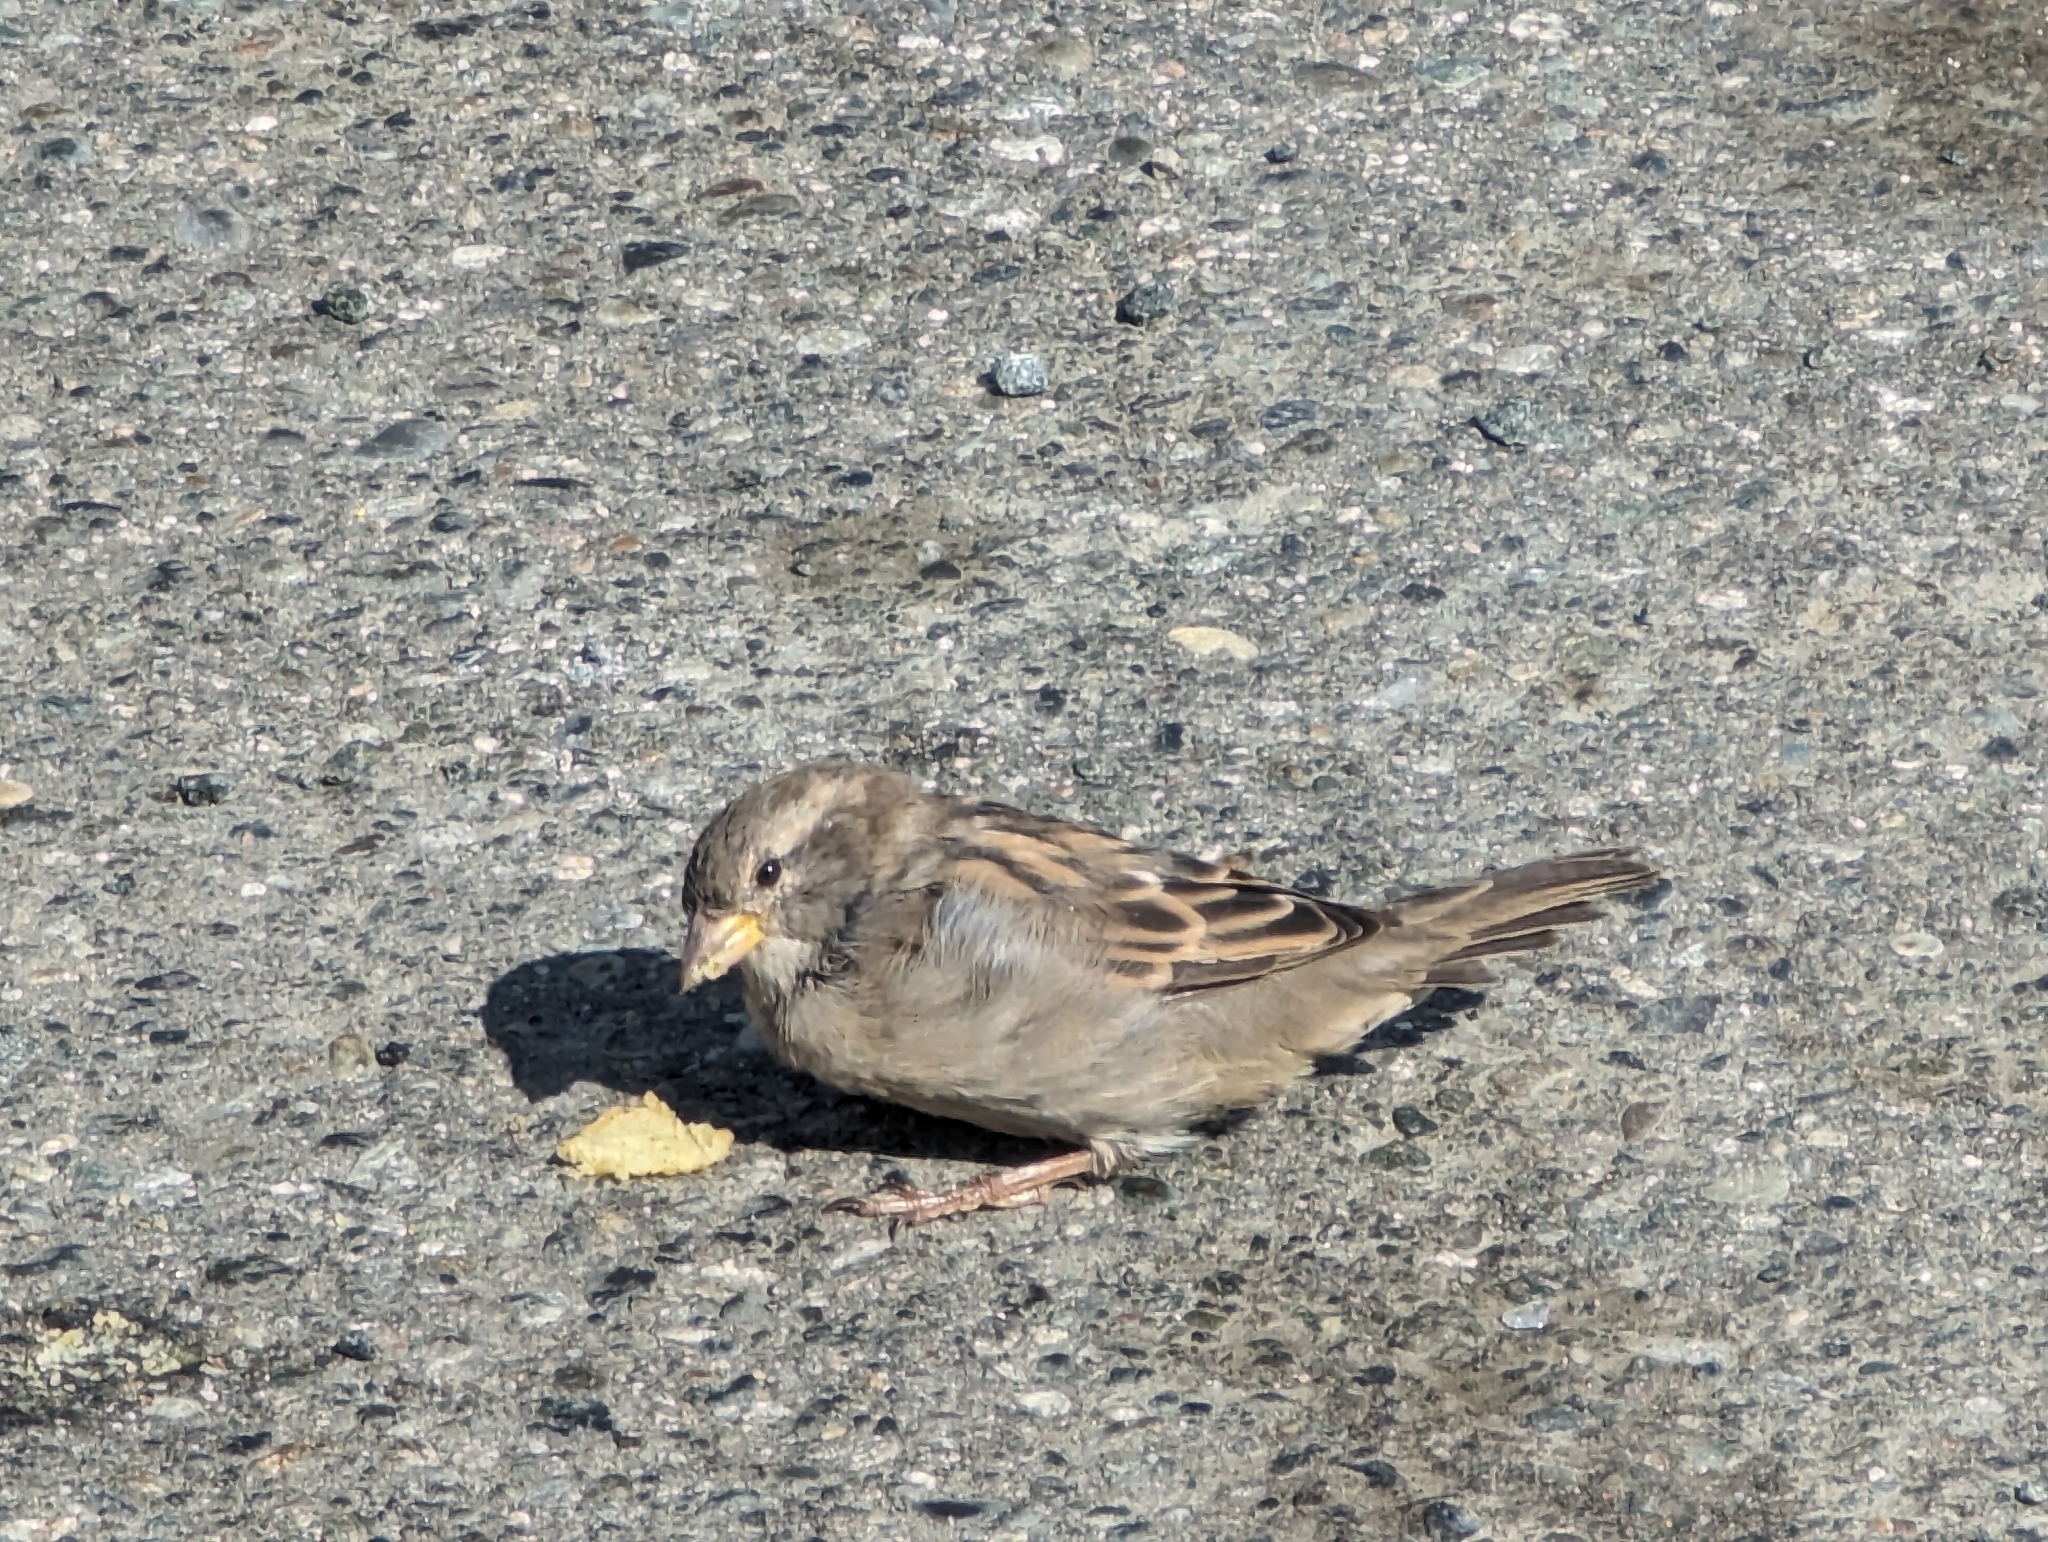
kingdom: Animalia
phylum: Chordata
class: Aves
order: Passeriformes
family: Passeridae
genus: Passer
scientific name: Passer domesticus
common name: House sparrow
